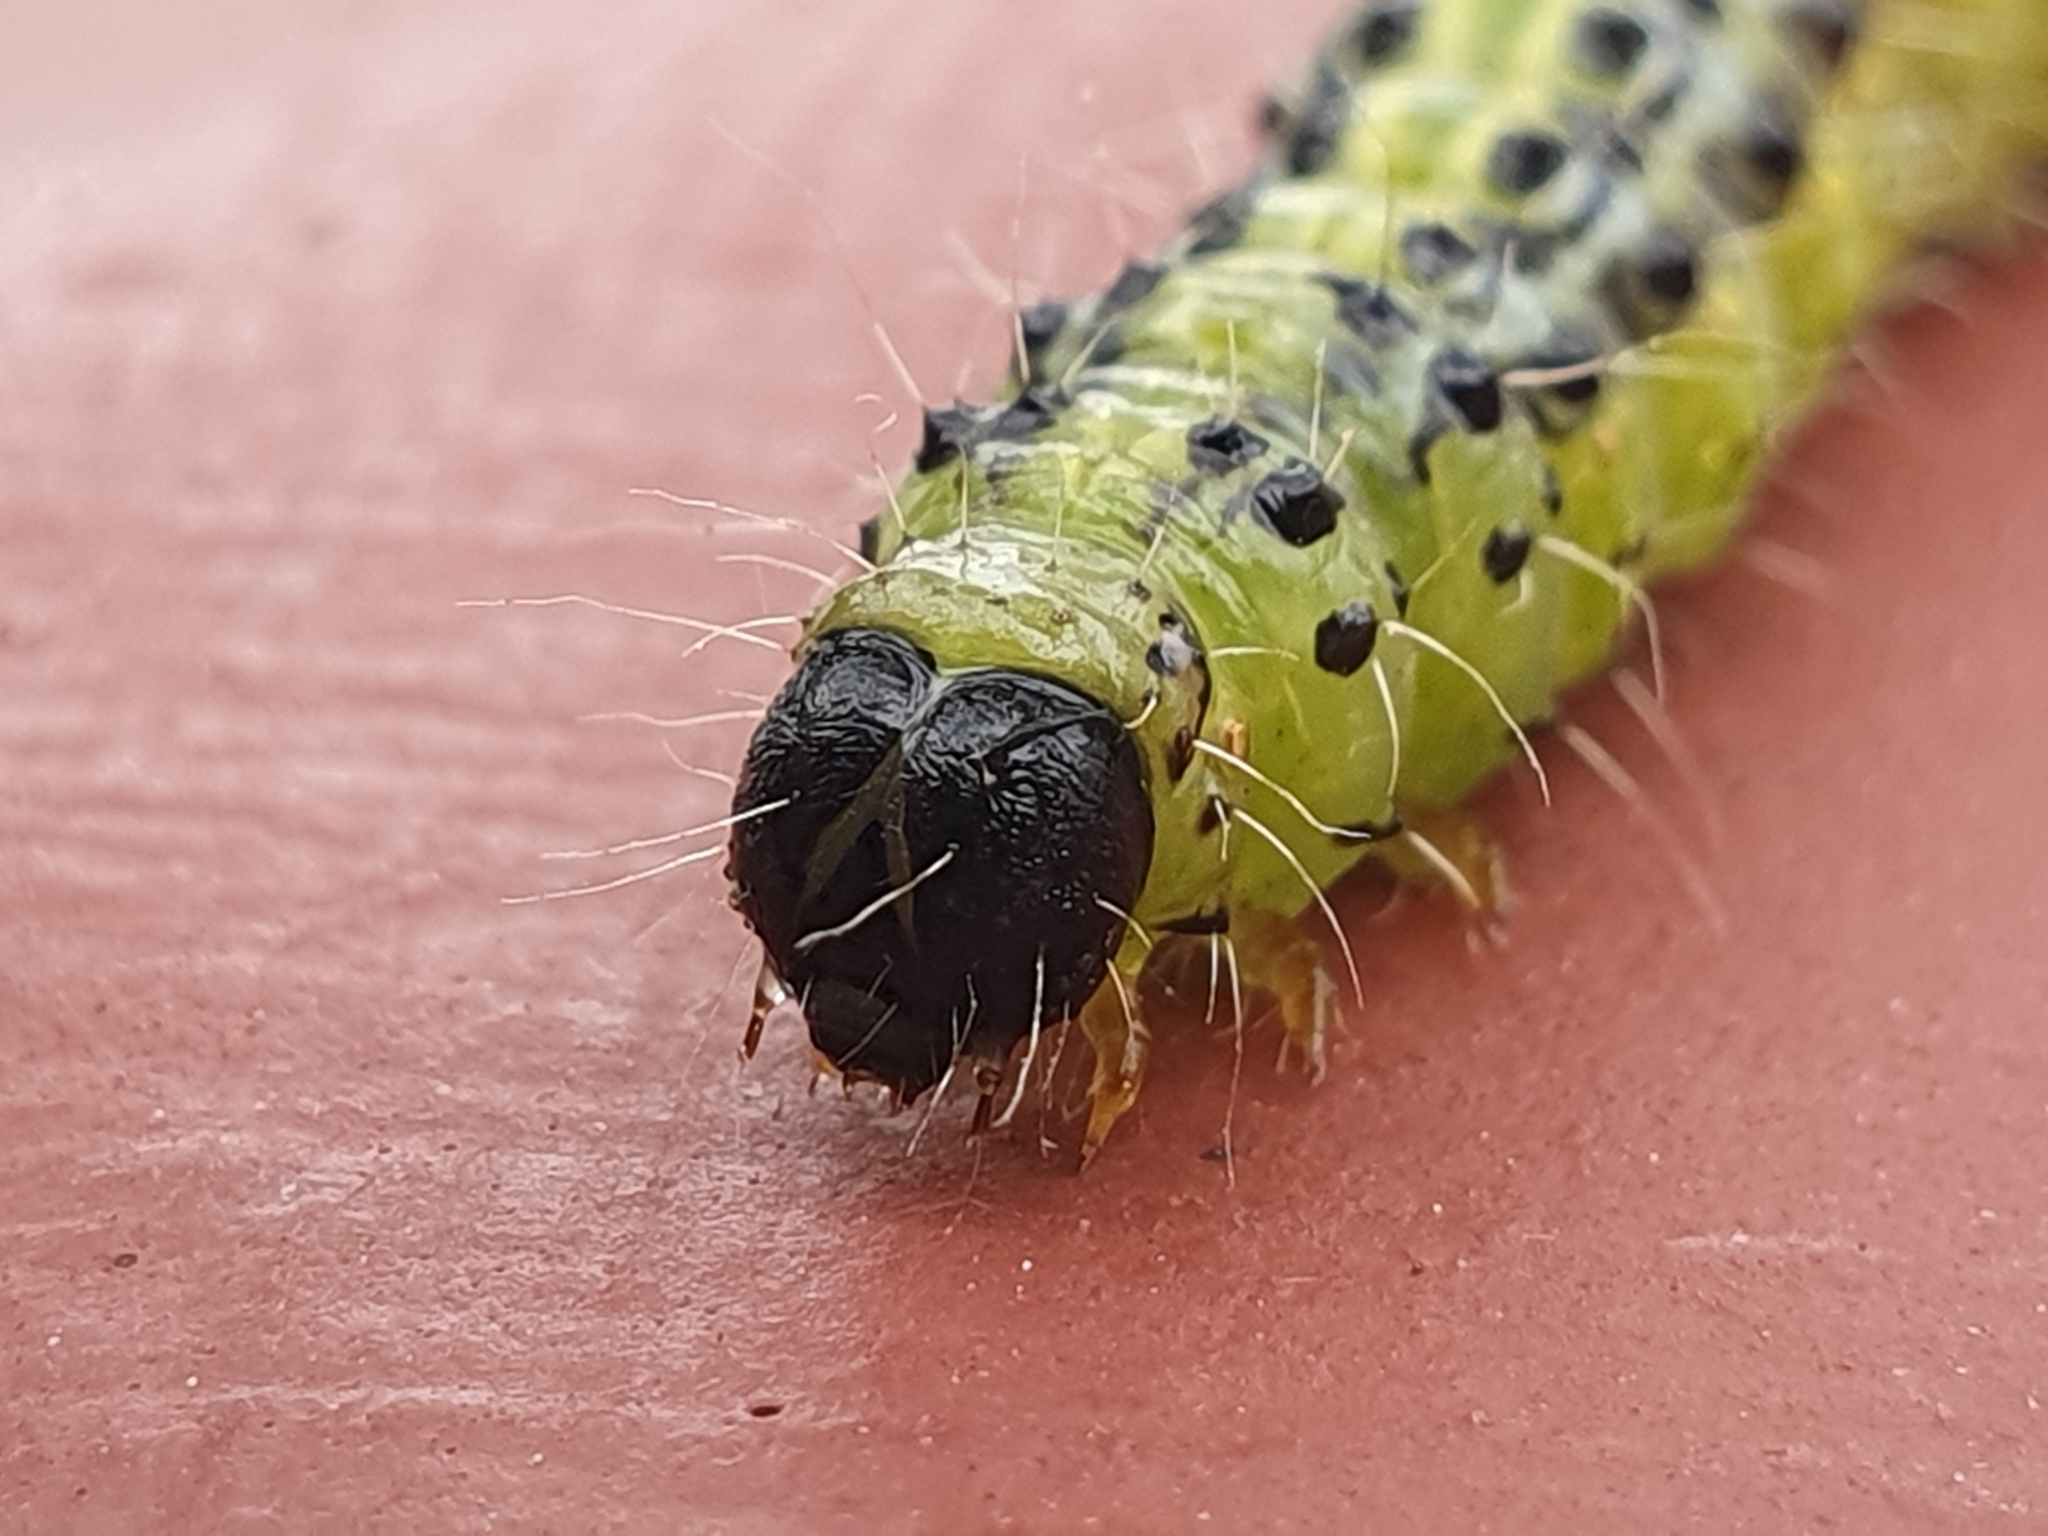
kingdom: Animalia
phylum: Arthropoda
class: Insecta
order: Lepidoptera
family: Crambidae
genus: Cydalima
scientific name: Cydalima perspectalis
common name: Box tree moth
